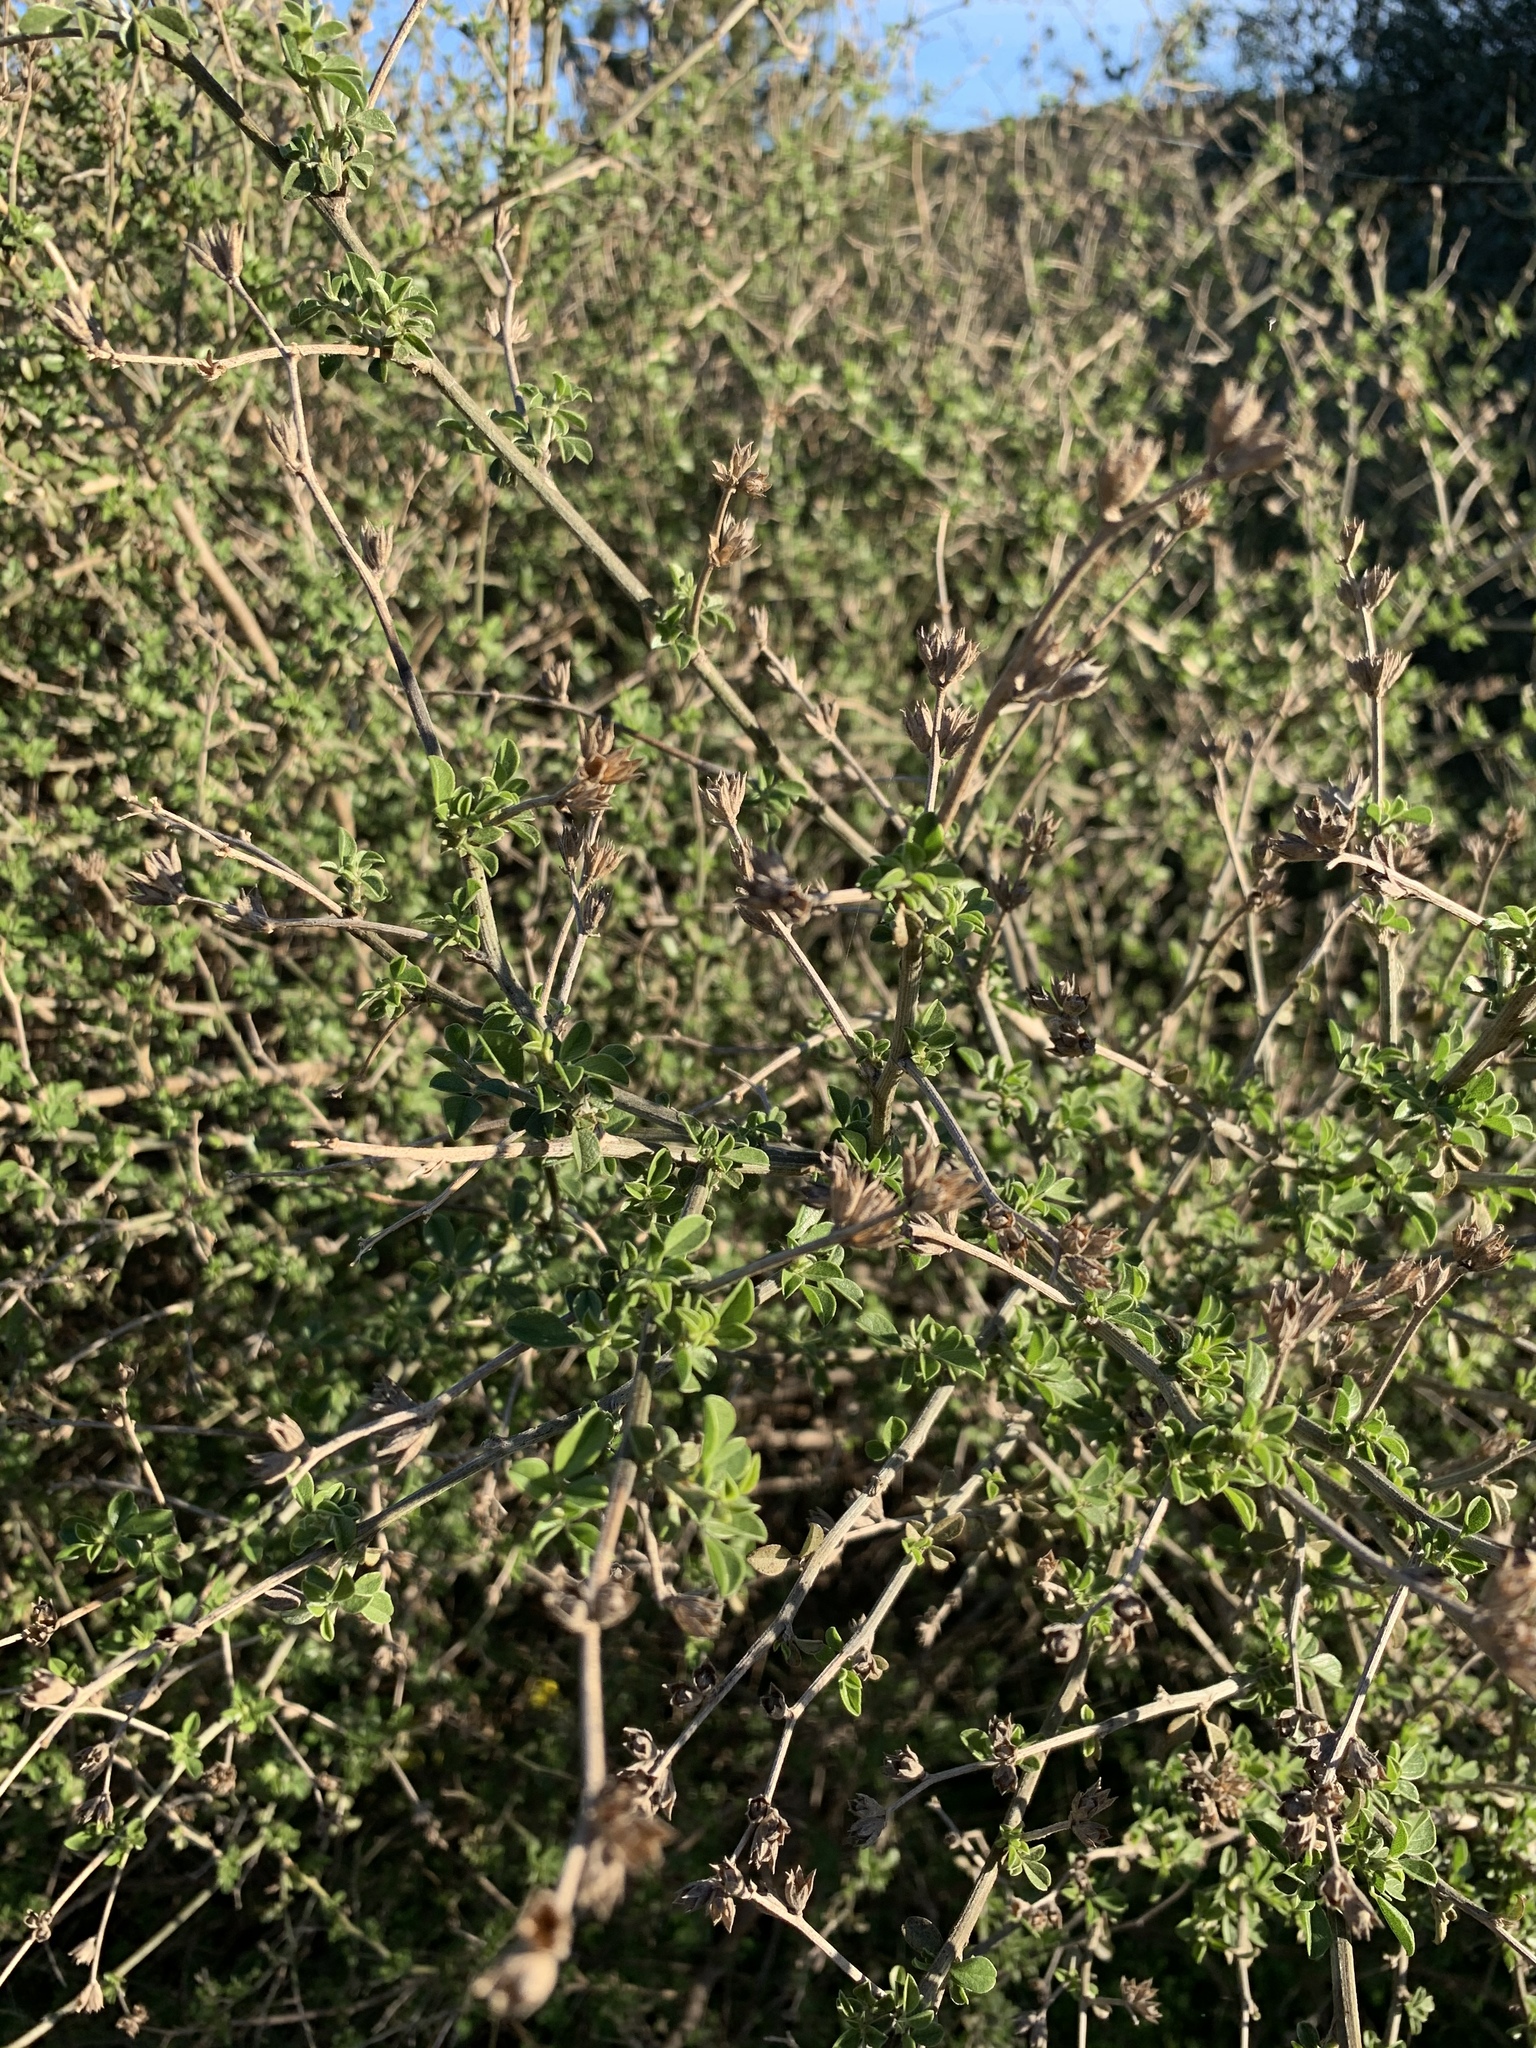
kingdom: Plantae
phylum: Tracheophyta
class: Magnoliopsida
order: Fabales
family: Fabaceae
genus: Psoralea
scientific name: Psoralea hirta
